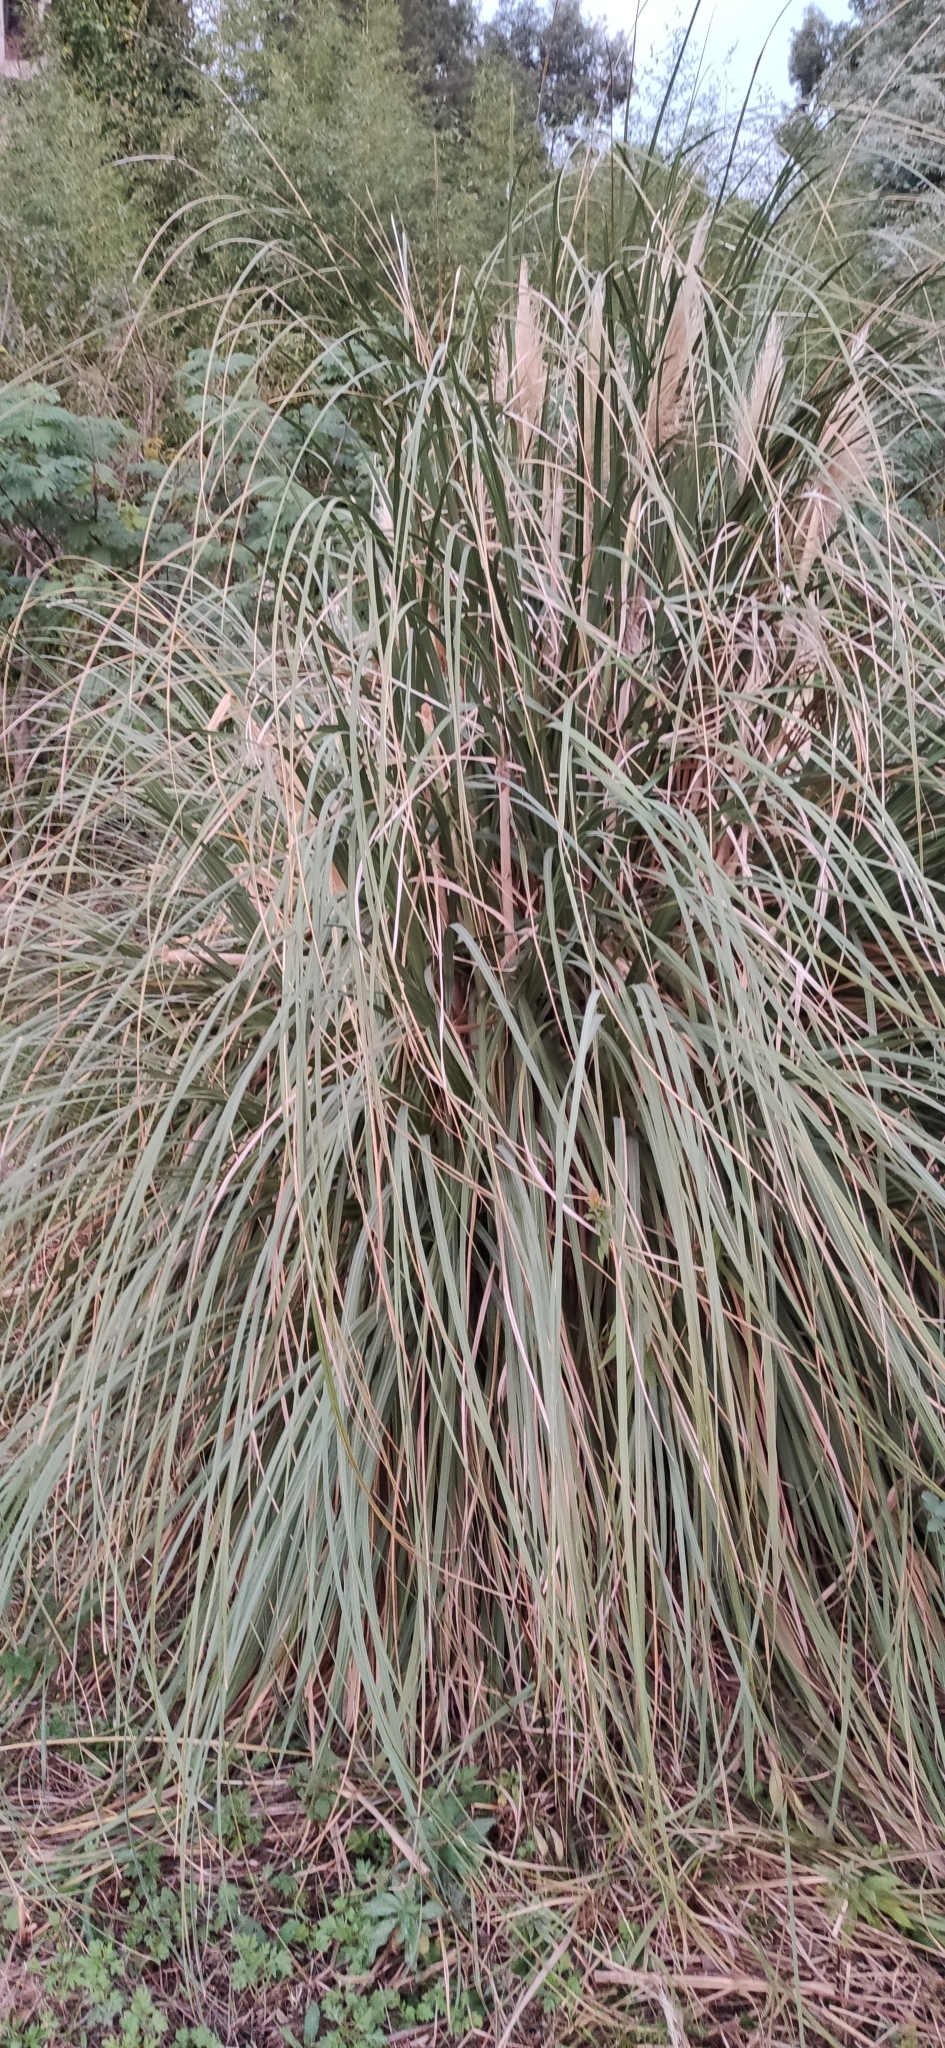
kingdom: Plantae
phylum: Tracheophyta
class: Liliopsida
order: Poales
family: Poaceae
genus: Cortaderia
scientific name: Cortaderia selloana
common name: Uruguayan pampas grass
